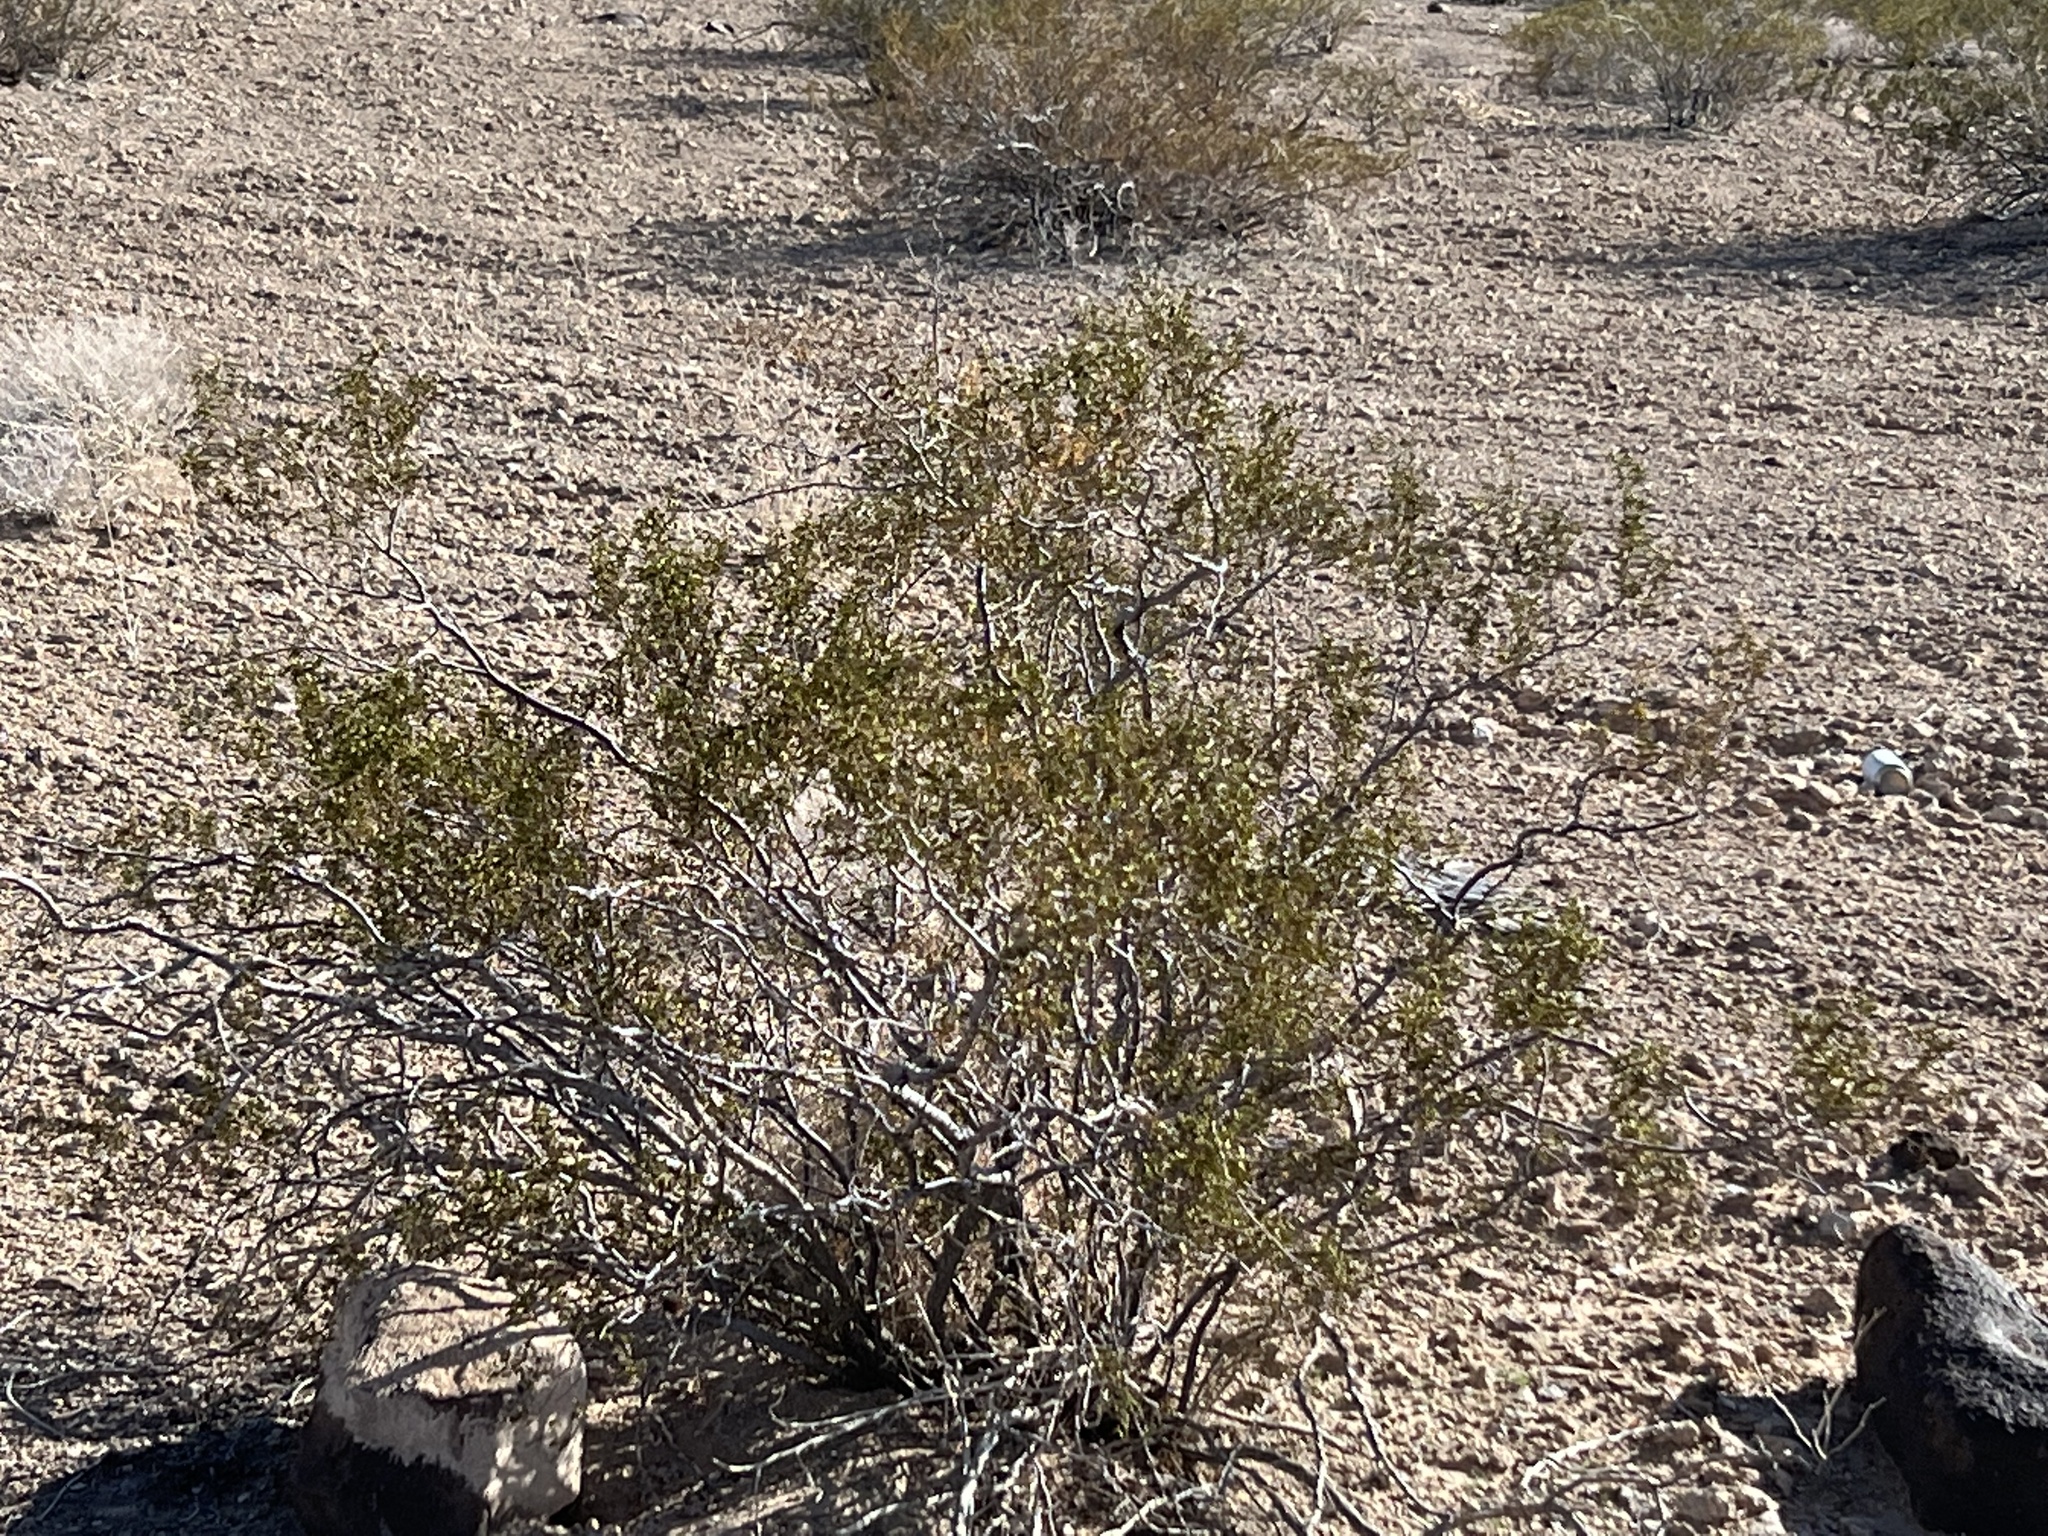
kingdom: Plantae
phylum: Tracheophyta
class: Magnoliopsida
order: Zygophyllales
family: Zygophyllaceae
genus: Larrea
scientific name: Larrea tridentata
